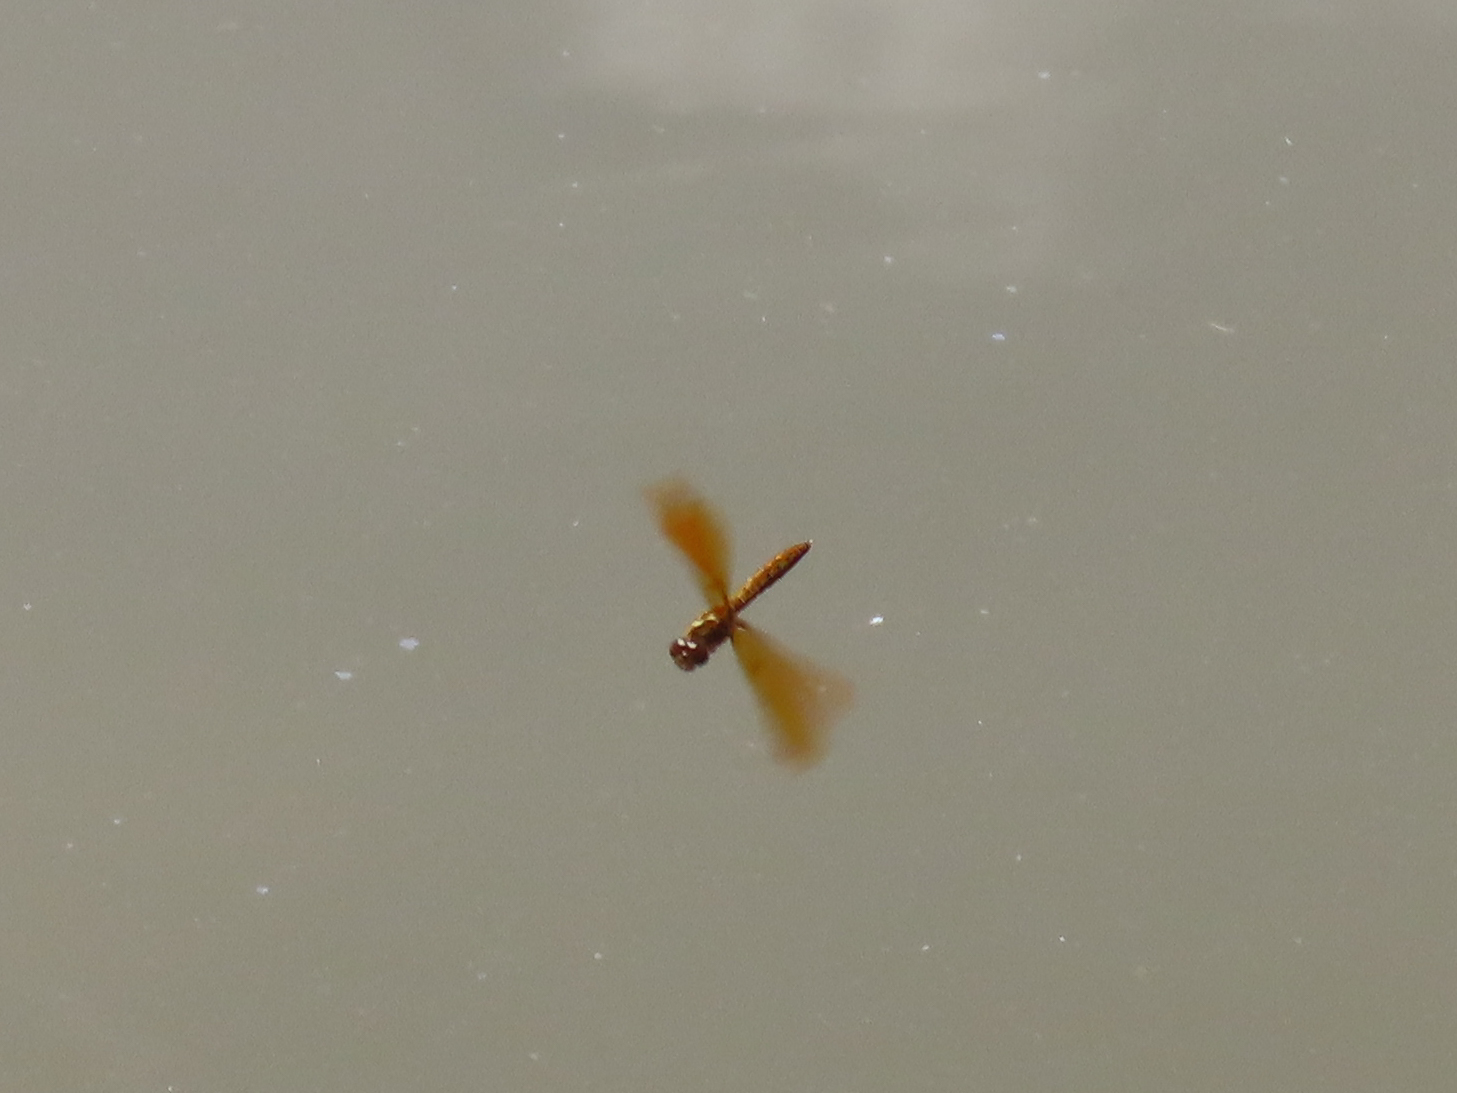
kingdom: Animalia
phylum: Arthropoda
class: Insecta
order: Odonata
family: Libellulidae
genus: Perithemis
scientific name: Perithemis tenera
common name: Eastern amberwing
